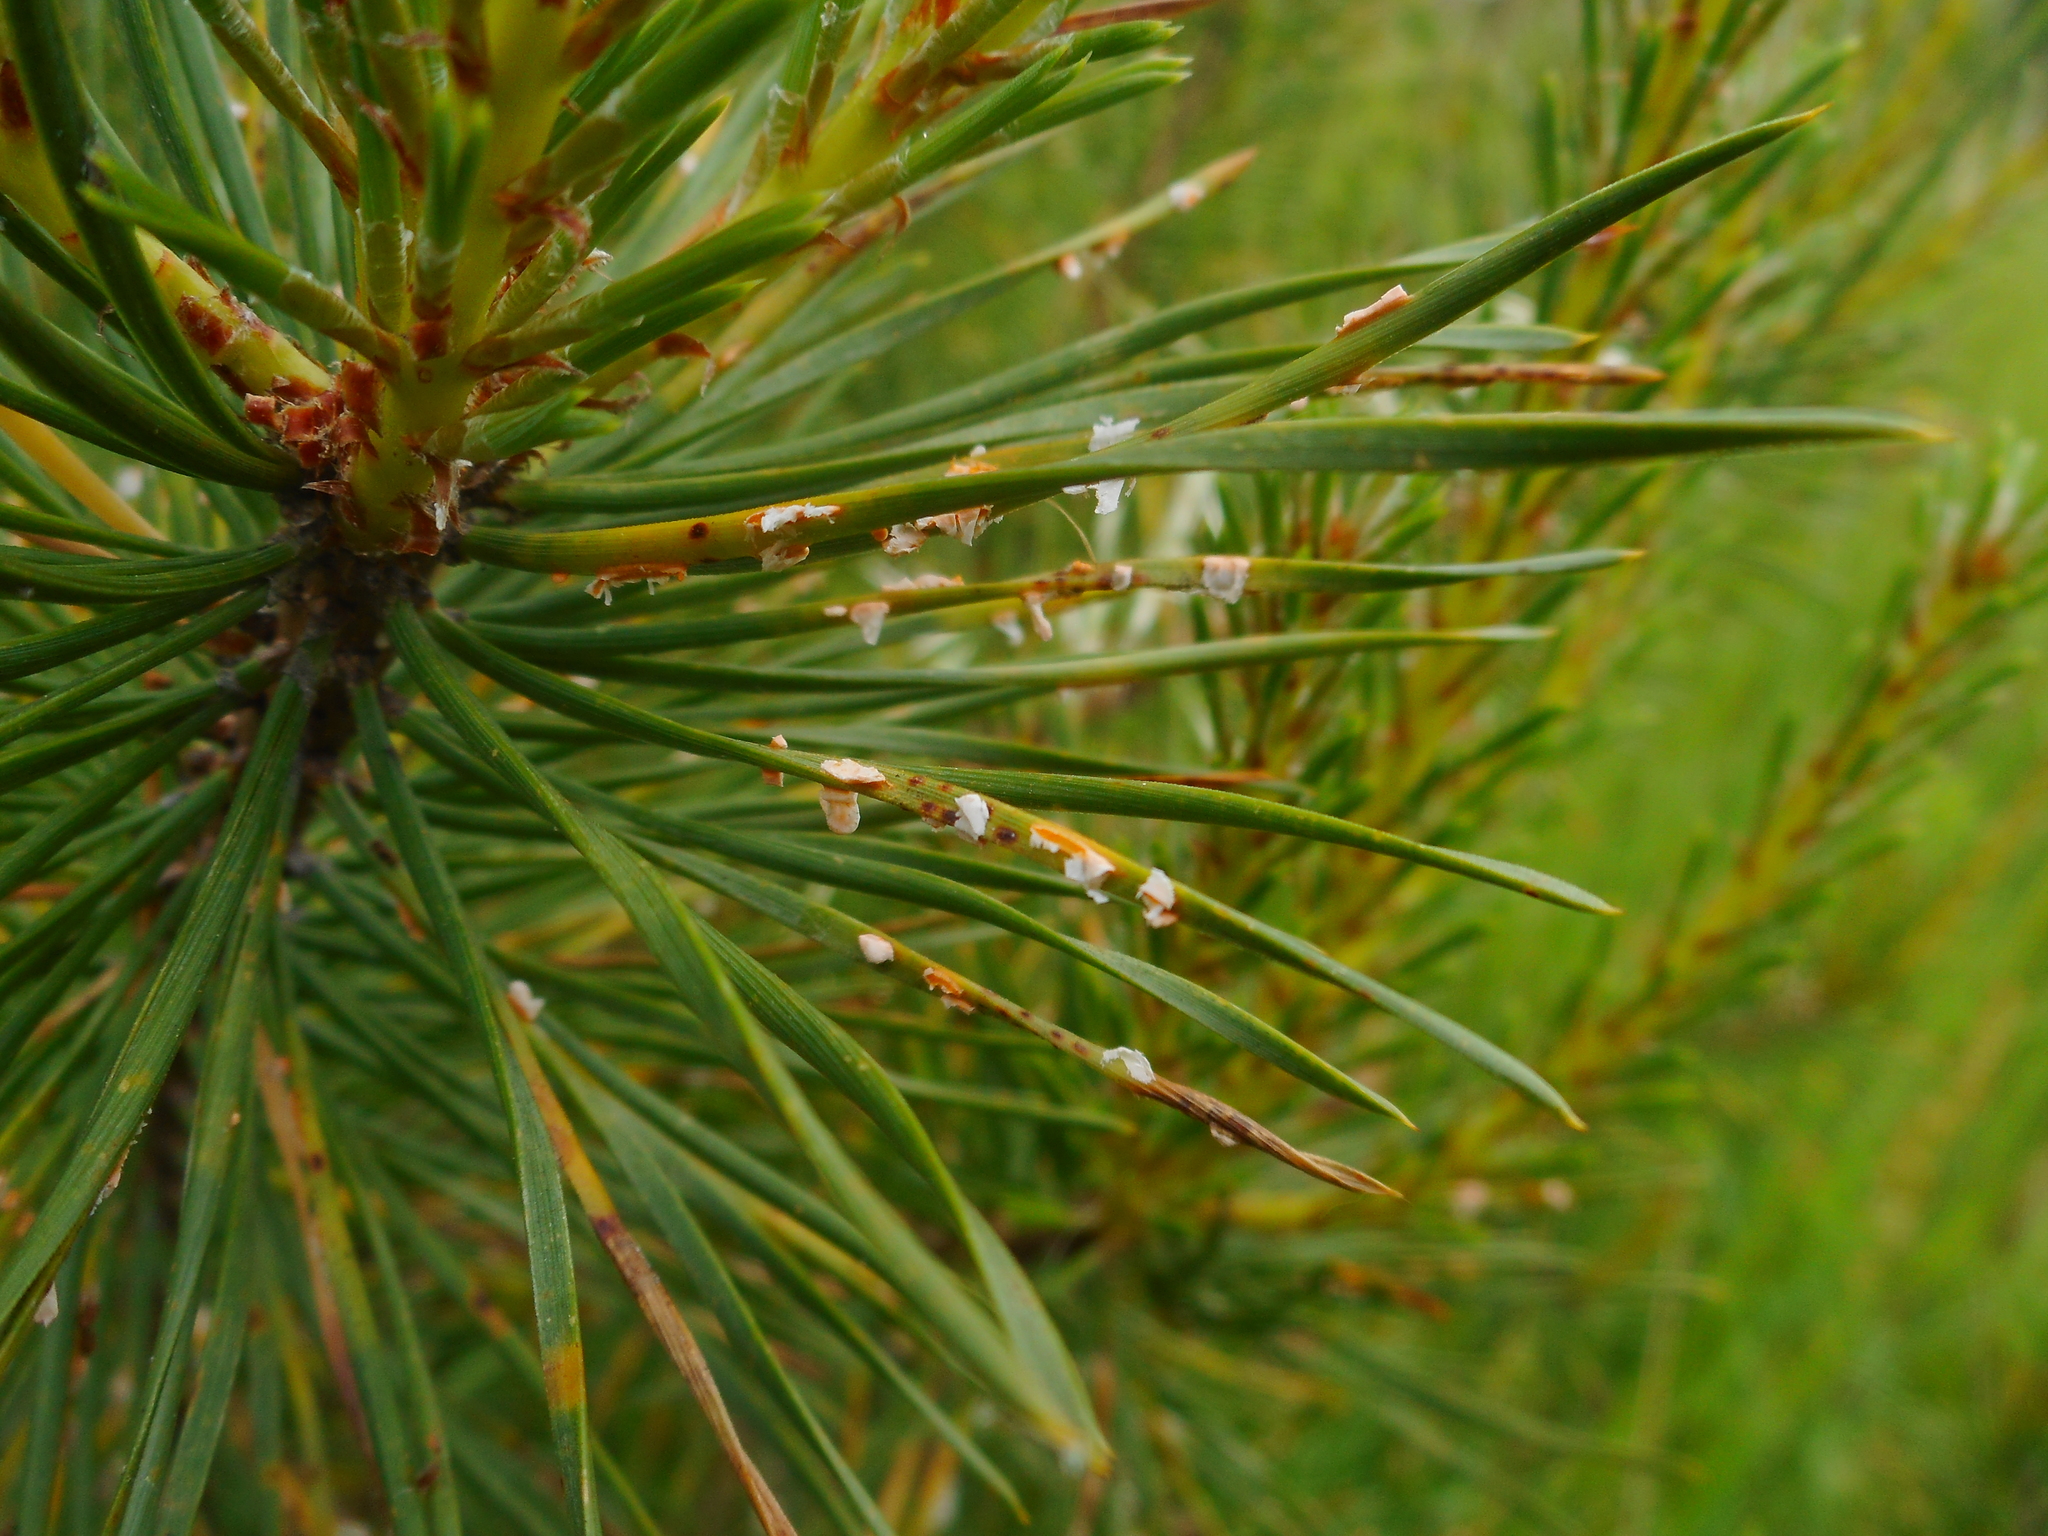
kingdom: Fungi
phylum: Basidiomycota
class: Pucciniomycetes
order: Pucciniales
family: Cronartiaceae
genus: Peridermium
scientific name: Peridermium oblongisporium
